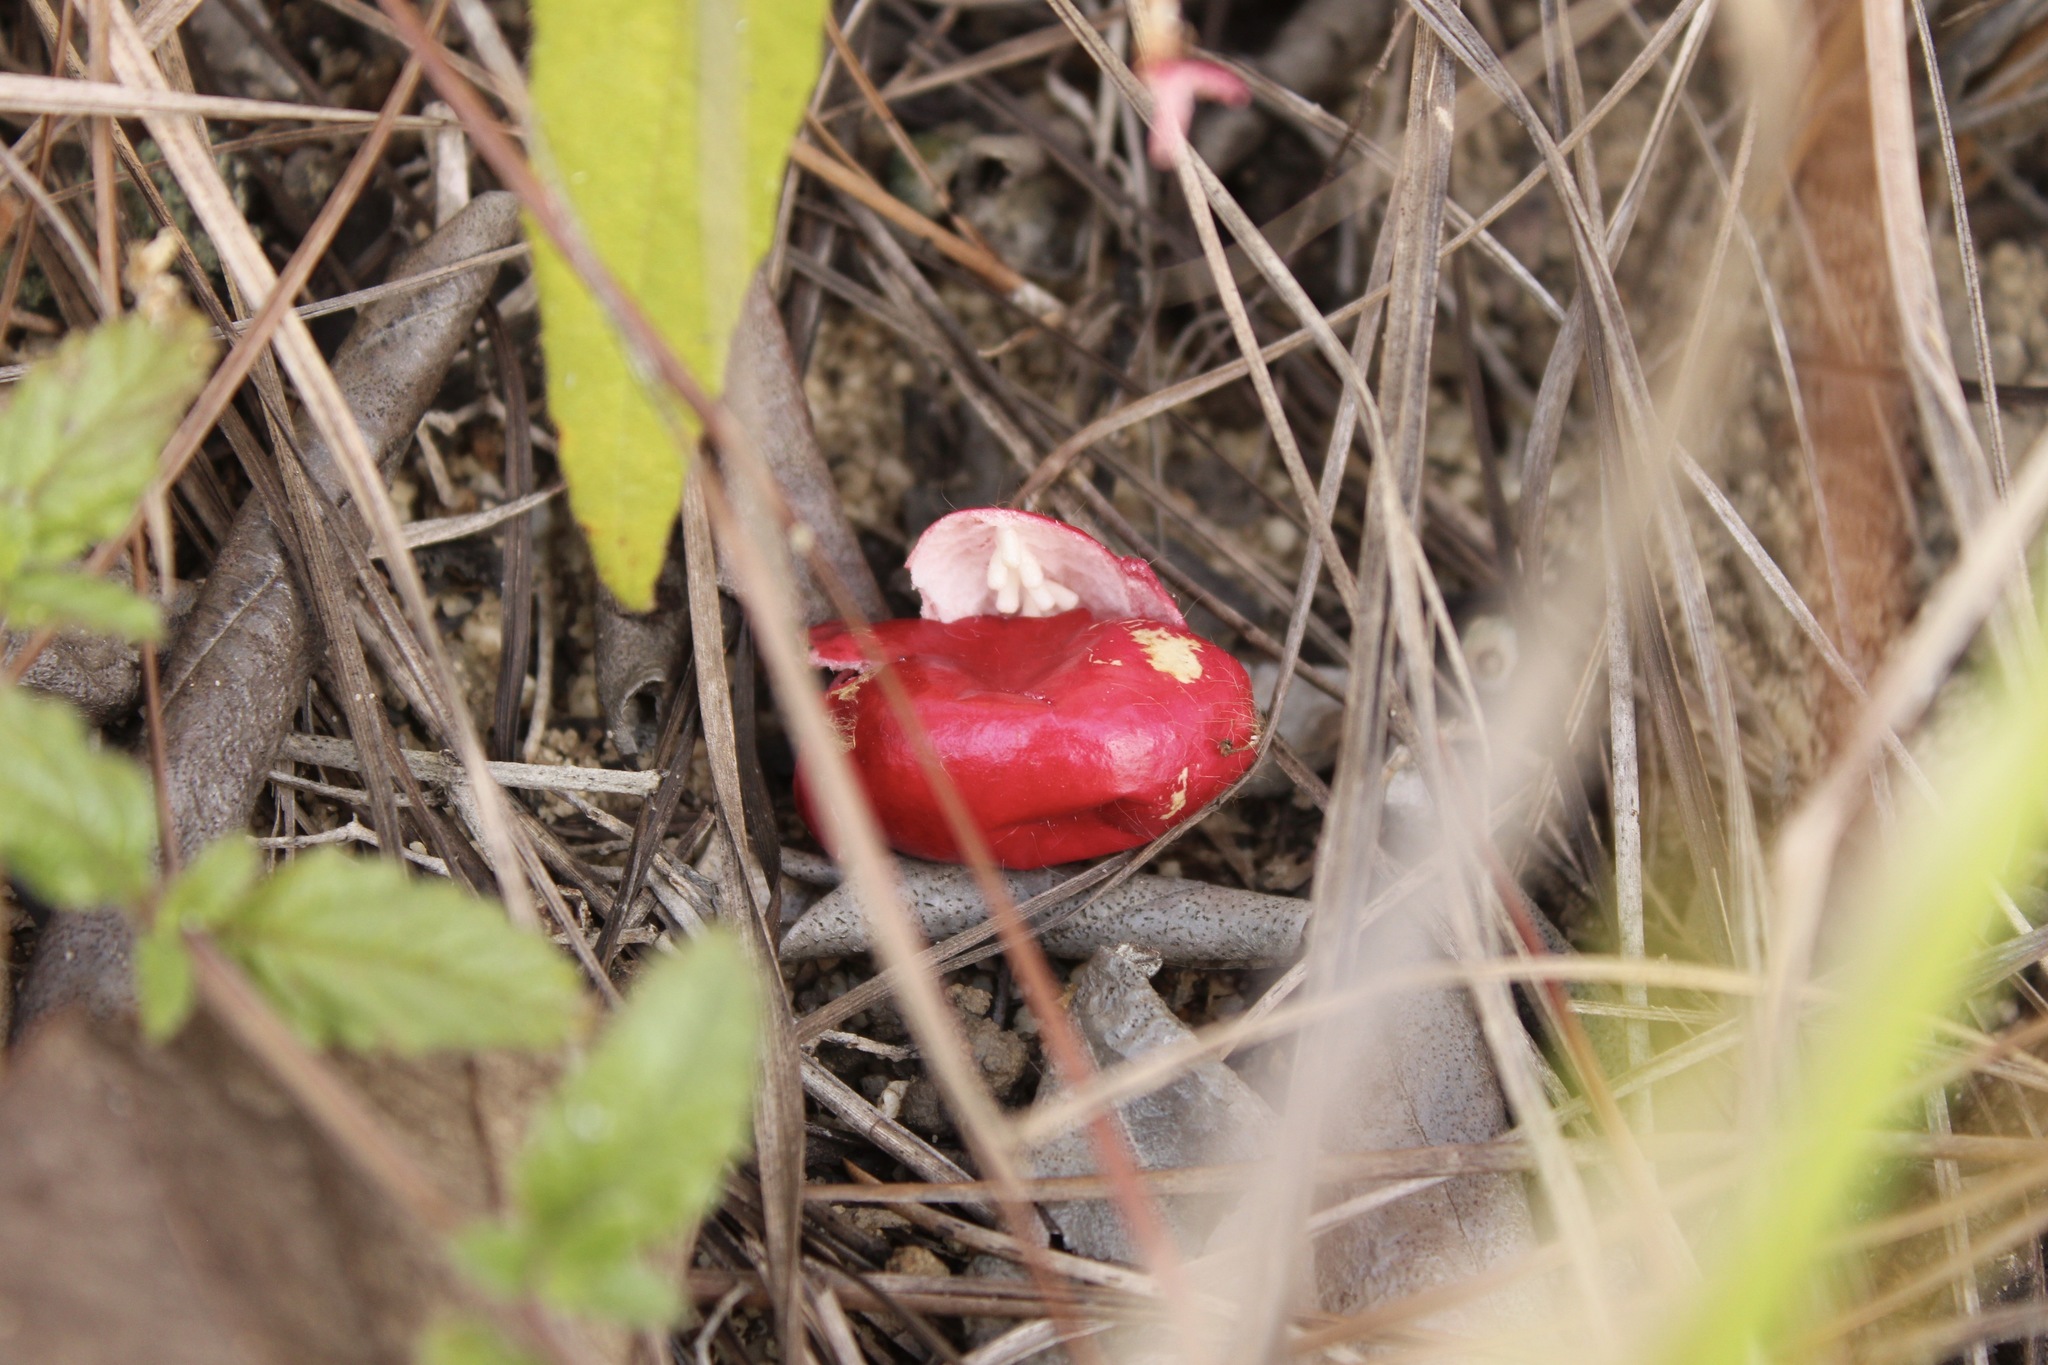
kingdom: Plantae
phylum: Tracheophyta
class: Magnoliopsida
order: Malpighiales
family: Passifloraceae
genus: Passiflora
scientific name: Passiflora foetida
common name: Fetid passionflower
